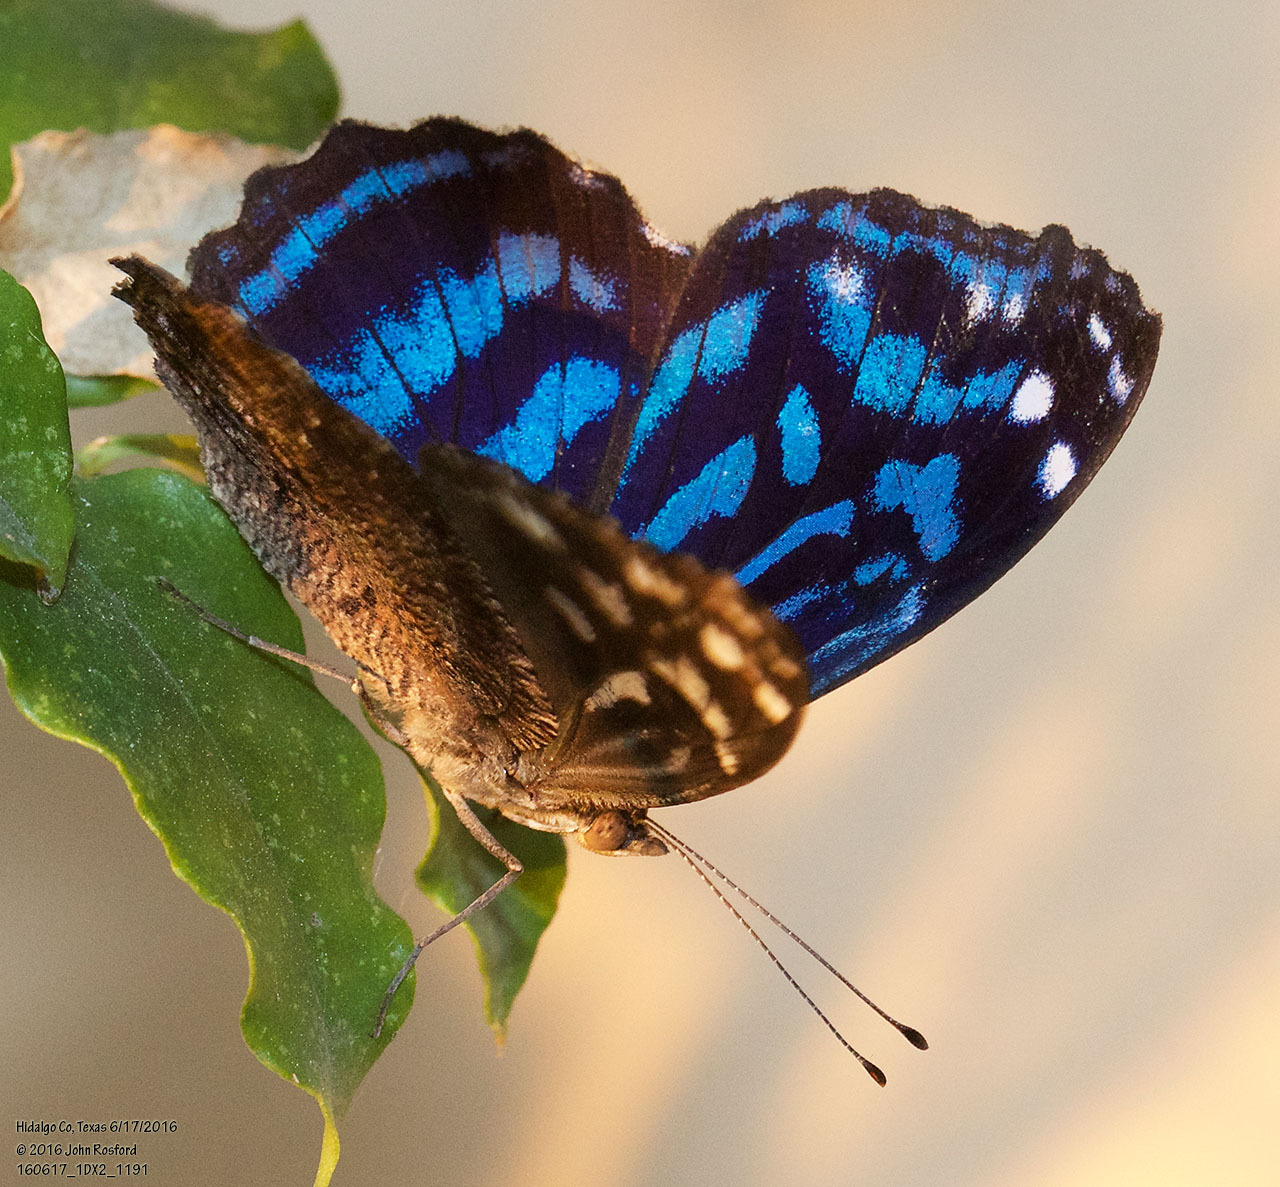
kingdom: Animalia
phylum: Arthropoda
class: Insecta
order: Lepidoptera
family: Nymphalidae
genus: Myscelia
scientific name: Myscelia ethusa
